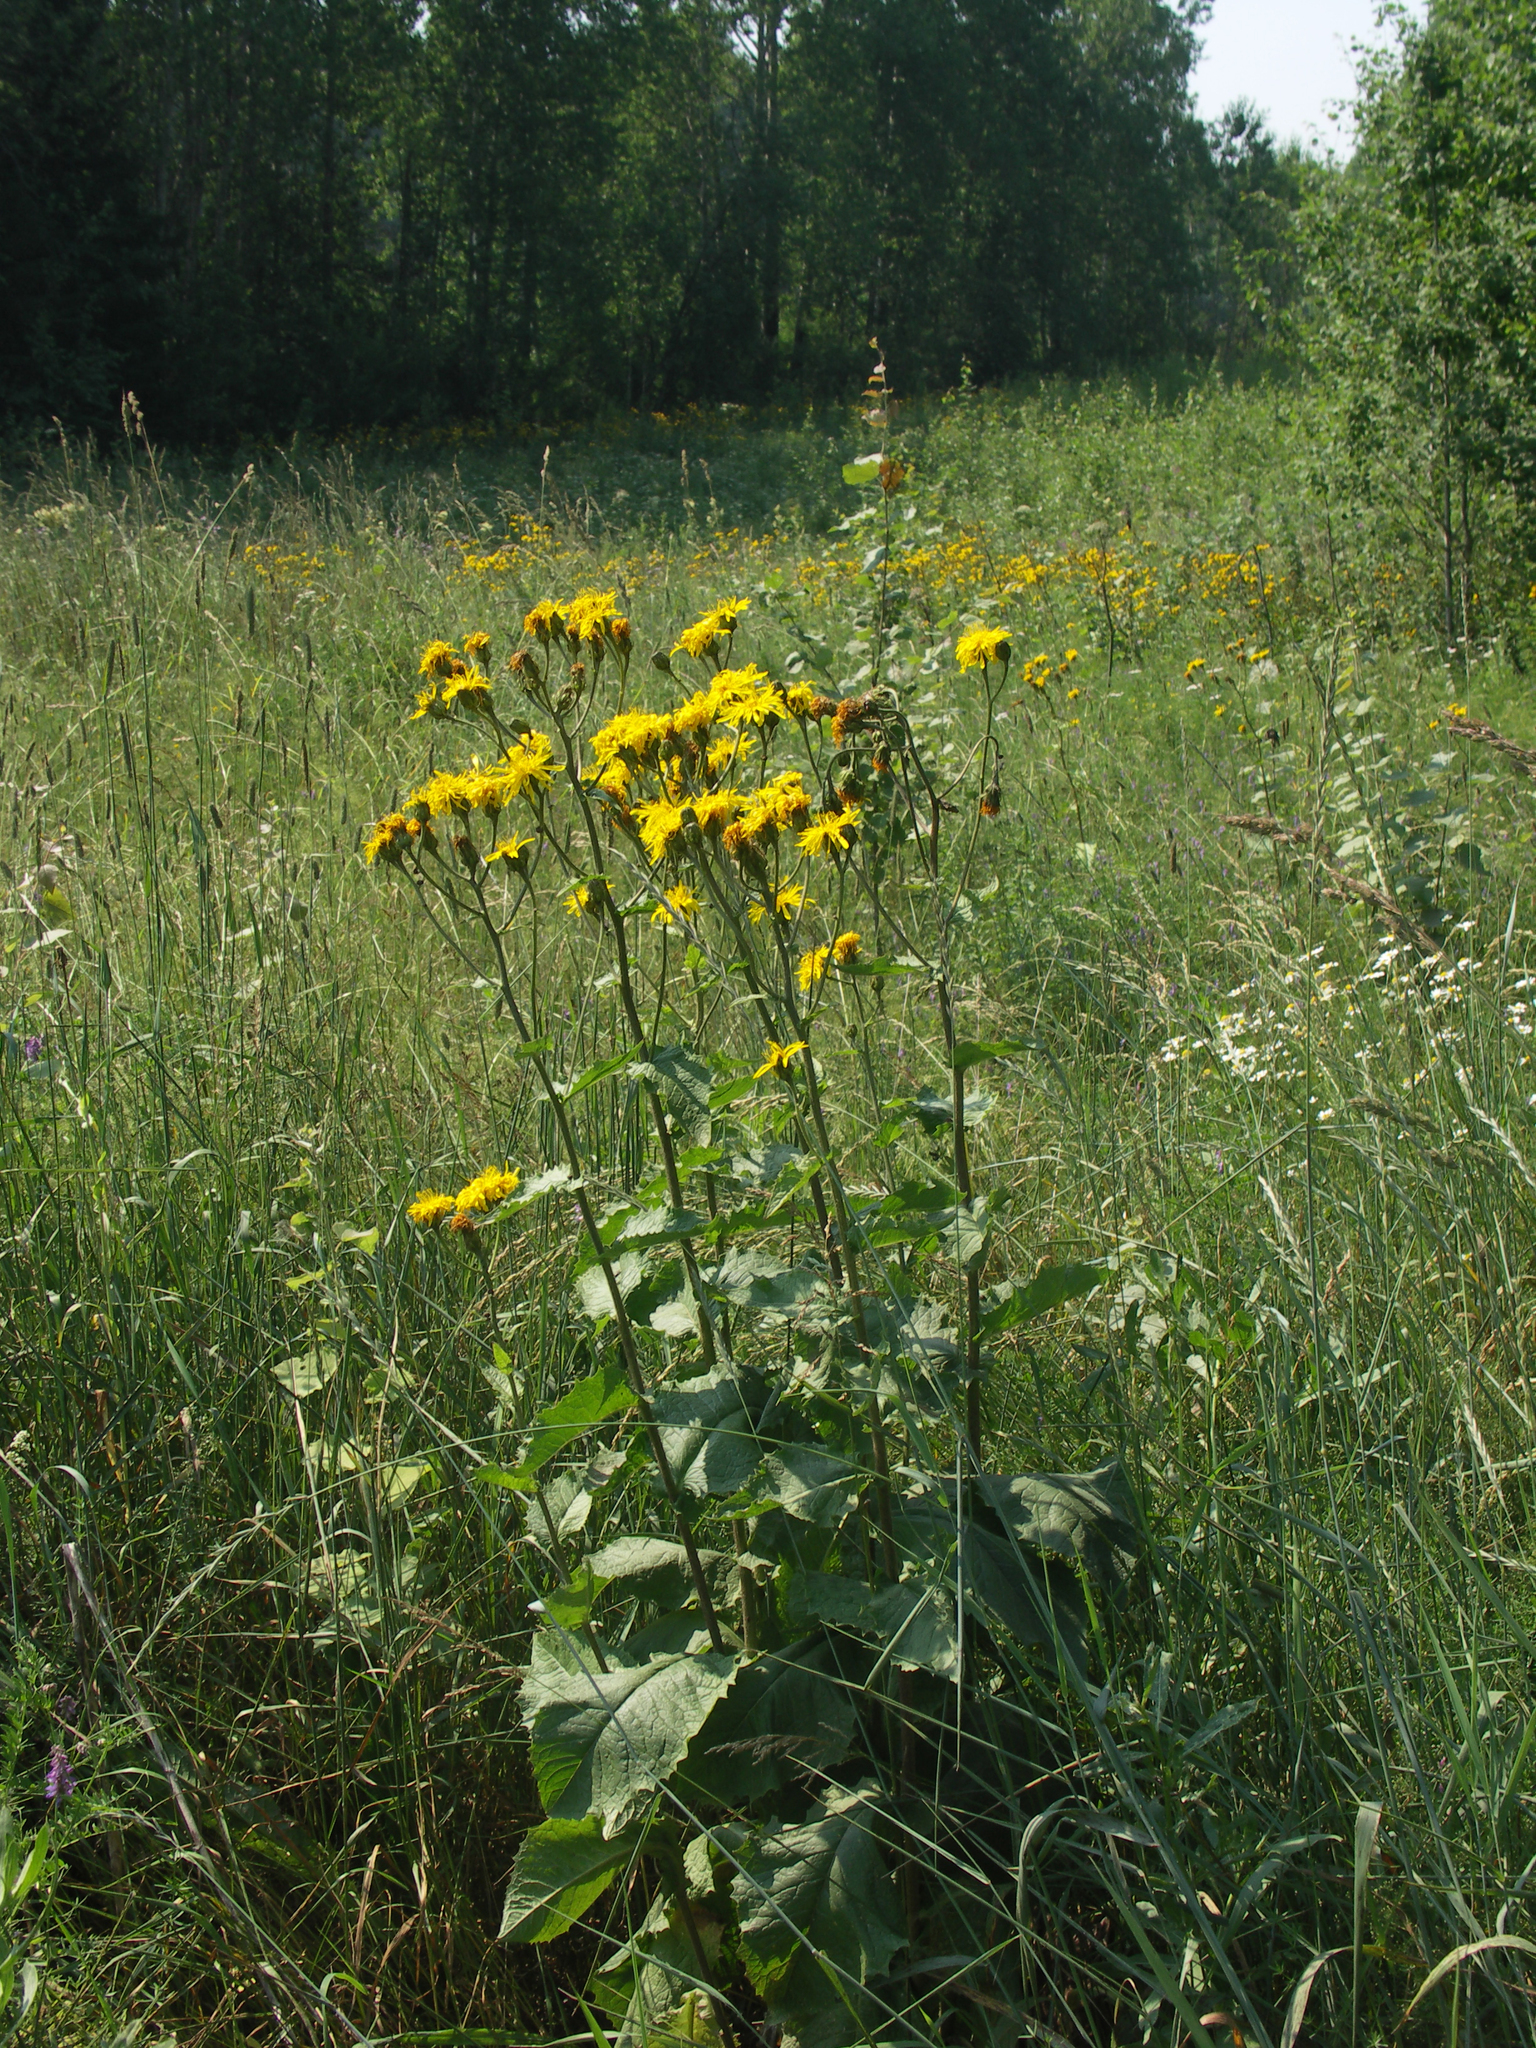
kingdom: Plantae
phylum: Tracheophyta
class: Magnoliopsida
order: Asterales
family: Asteraceae
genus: Crepis
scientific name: Crepis sibirica
